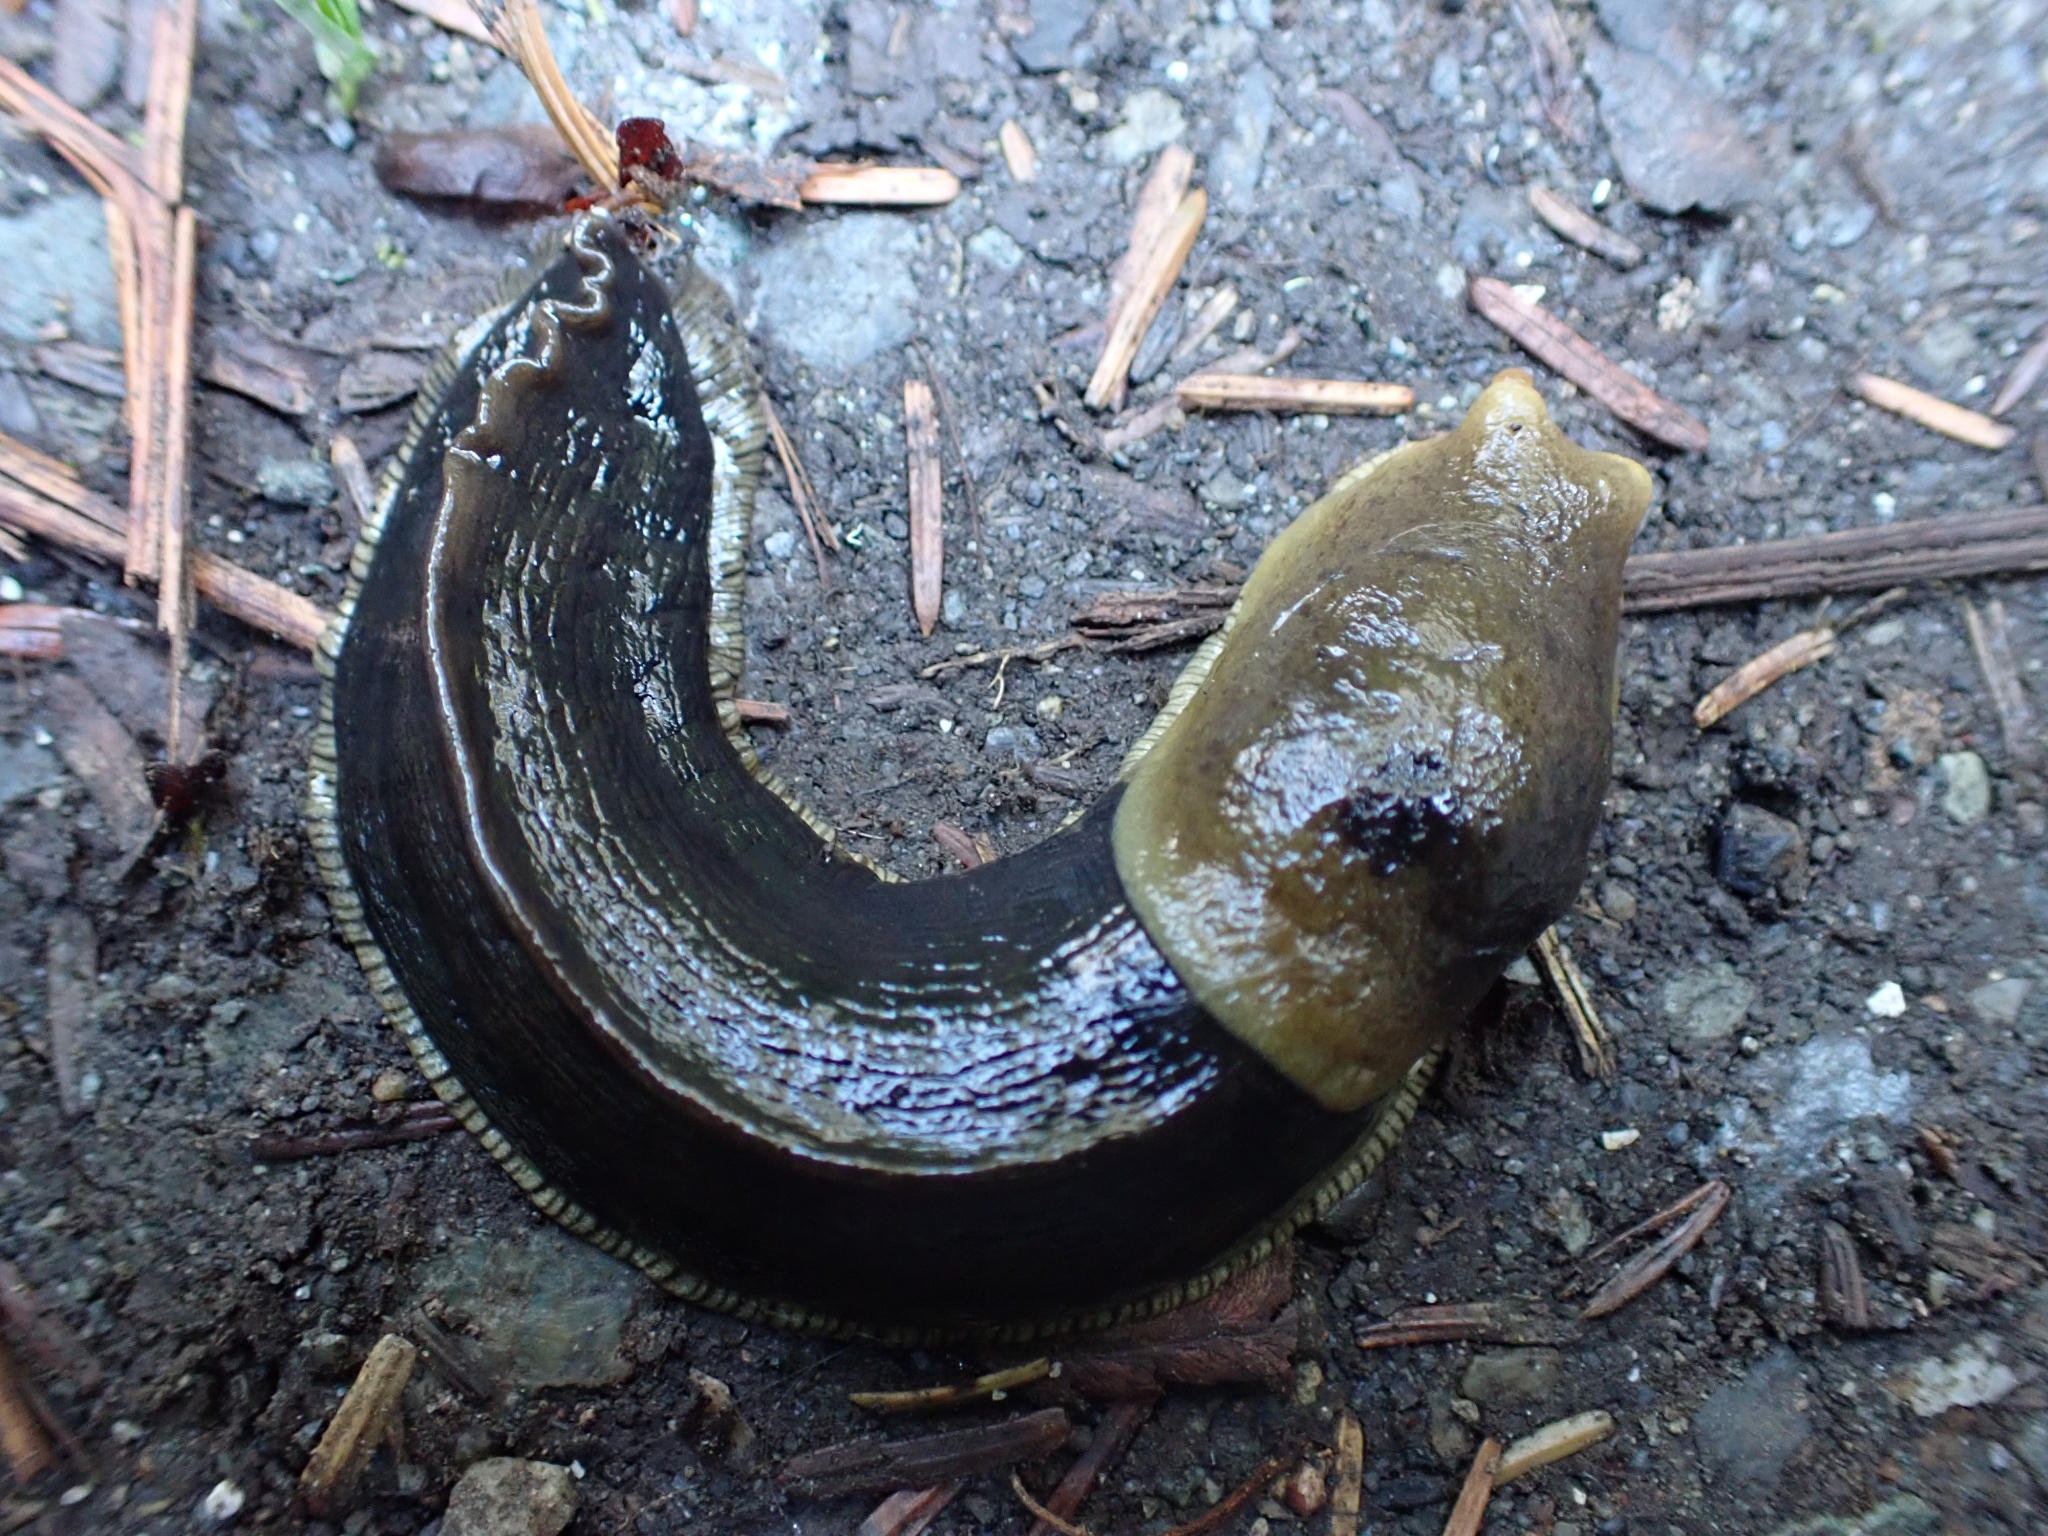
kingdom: Animalia
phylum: Mollusca
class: Gastropoda
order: Stylommatophora
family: Ariolimacidae
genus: Ariolimax
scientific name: Ariolimax columbianus
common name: Pacific banana slug
